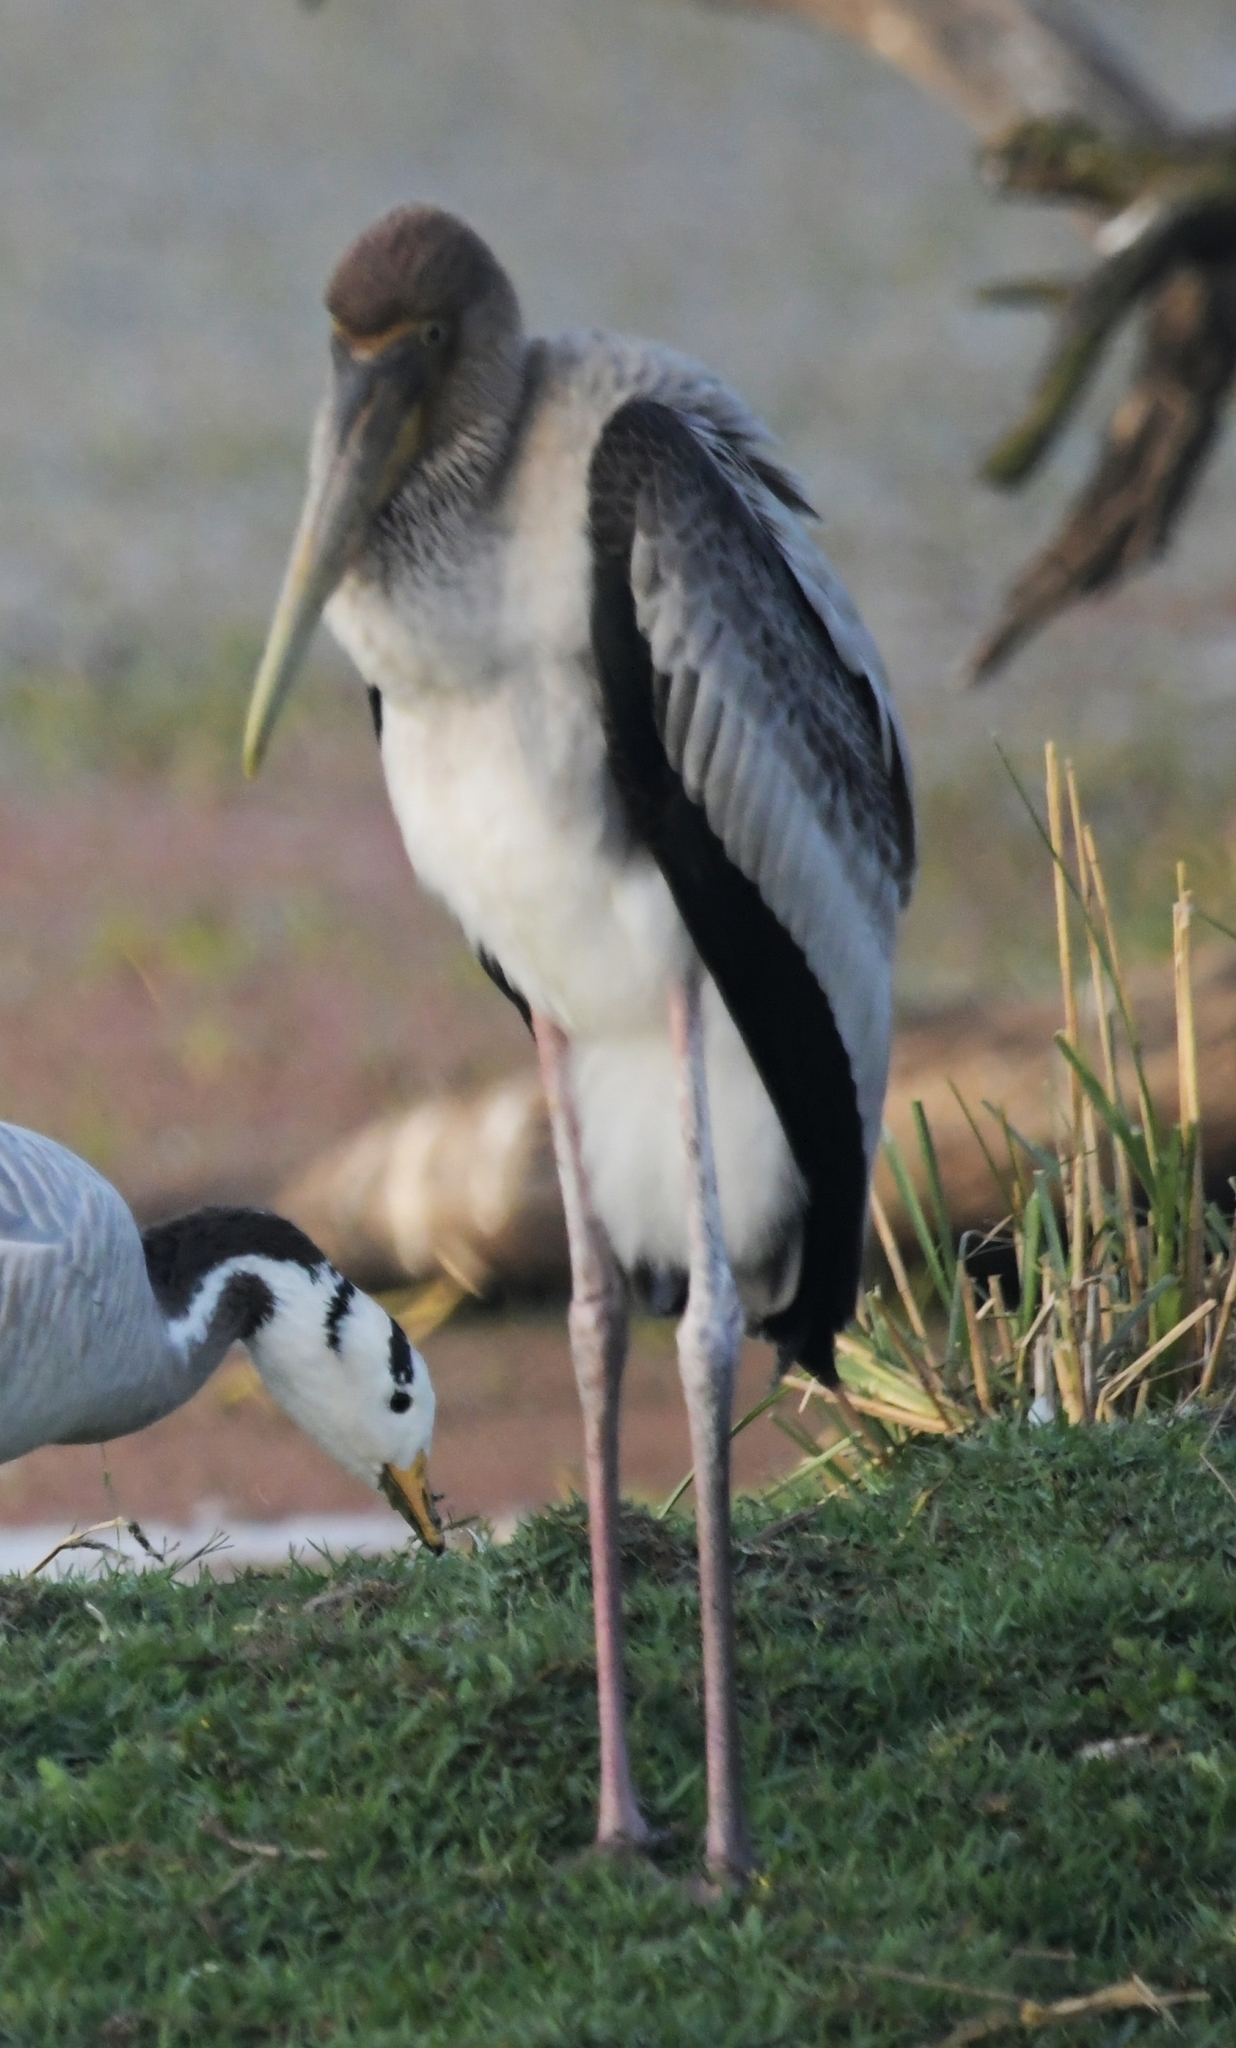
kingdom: Animalia
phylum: Chordata
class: Aves
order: Ciconiiformes
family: Ciconiidae
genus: Mycteria
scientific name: Mycteria leucocephala
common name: Painted stork
